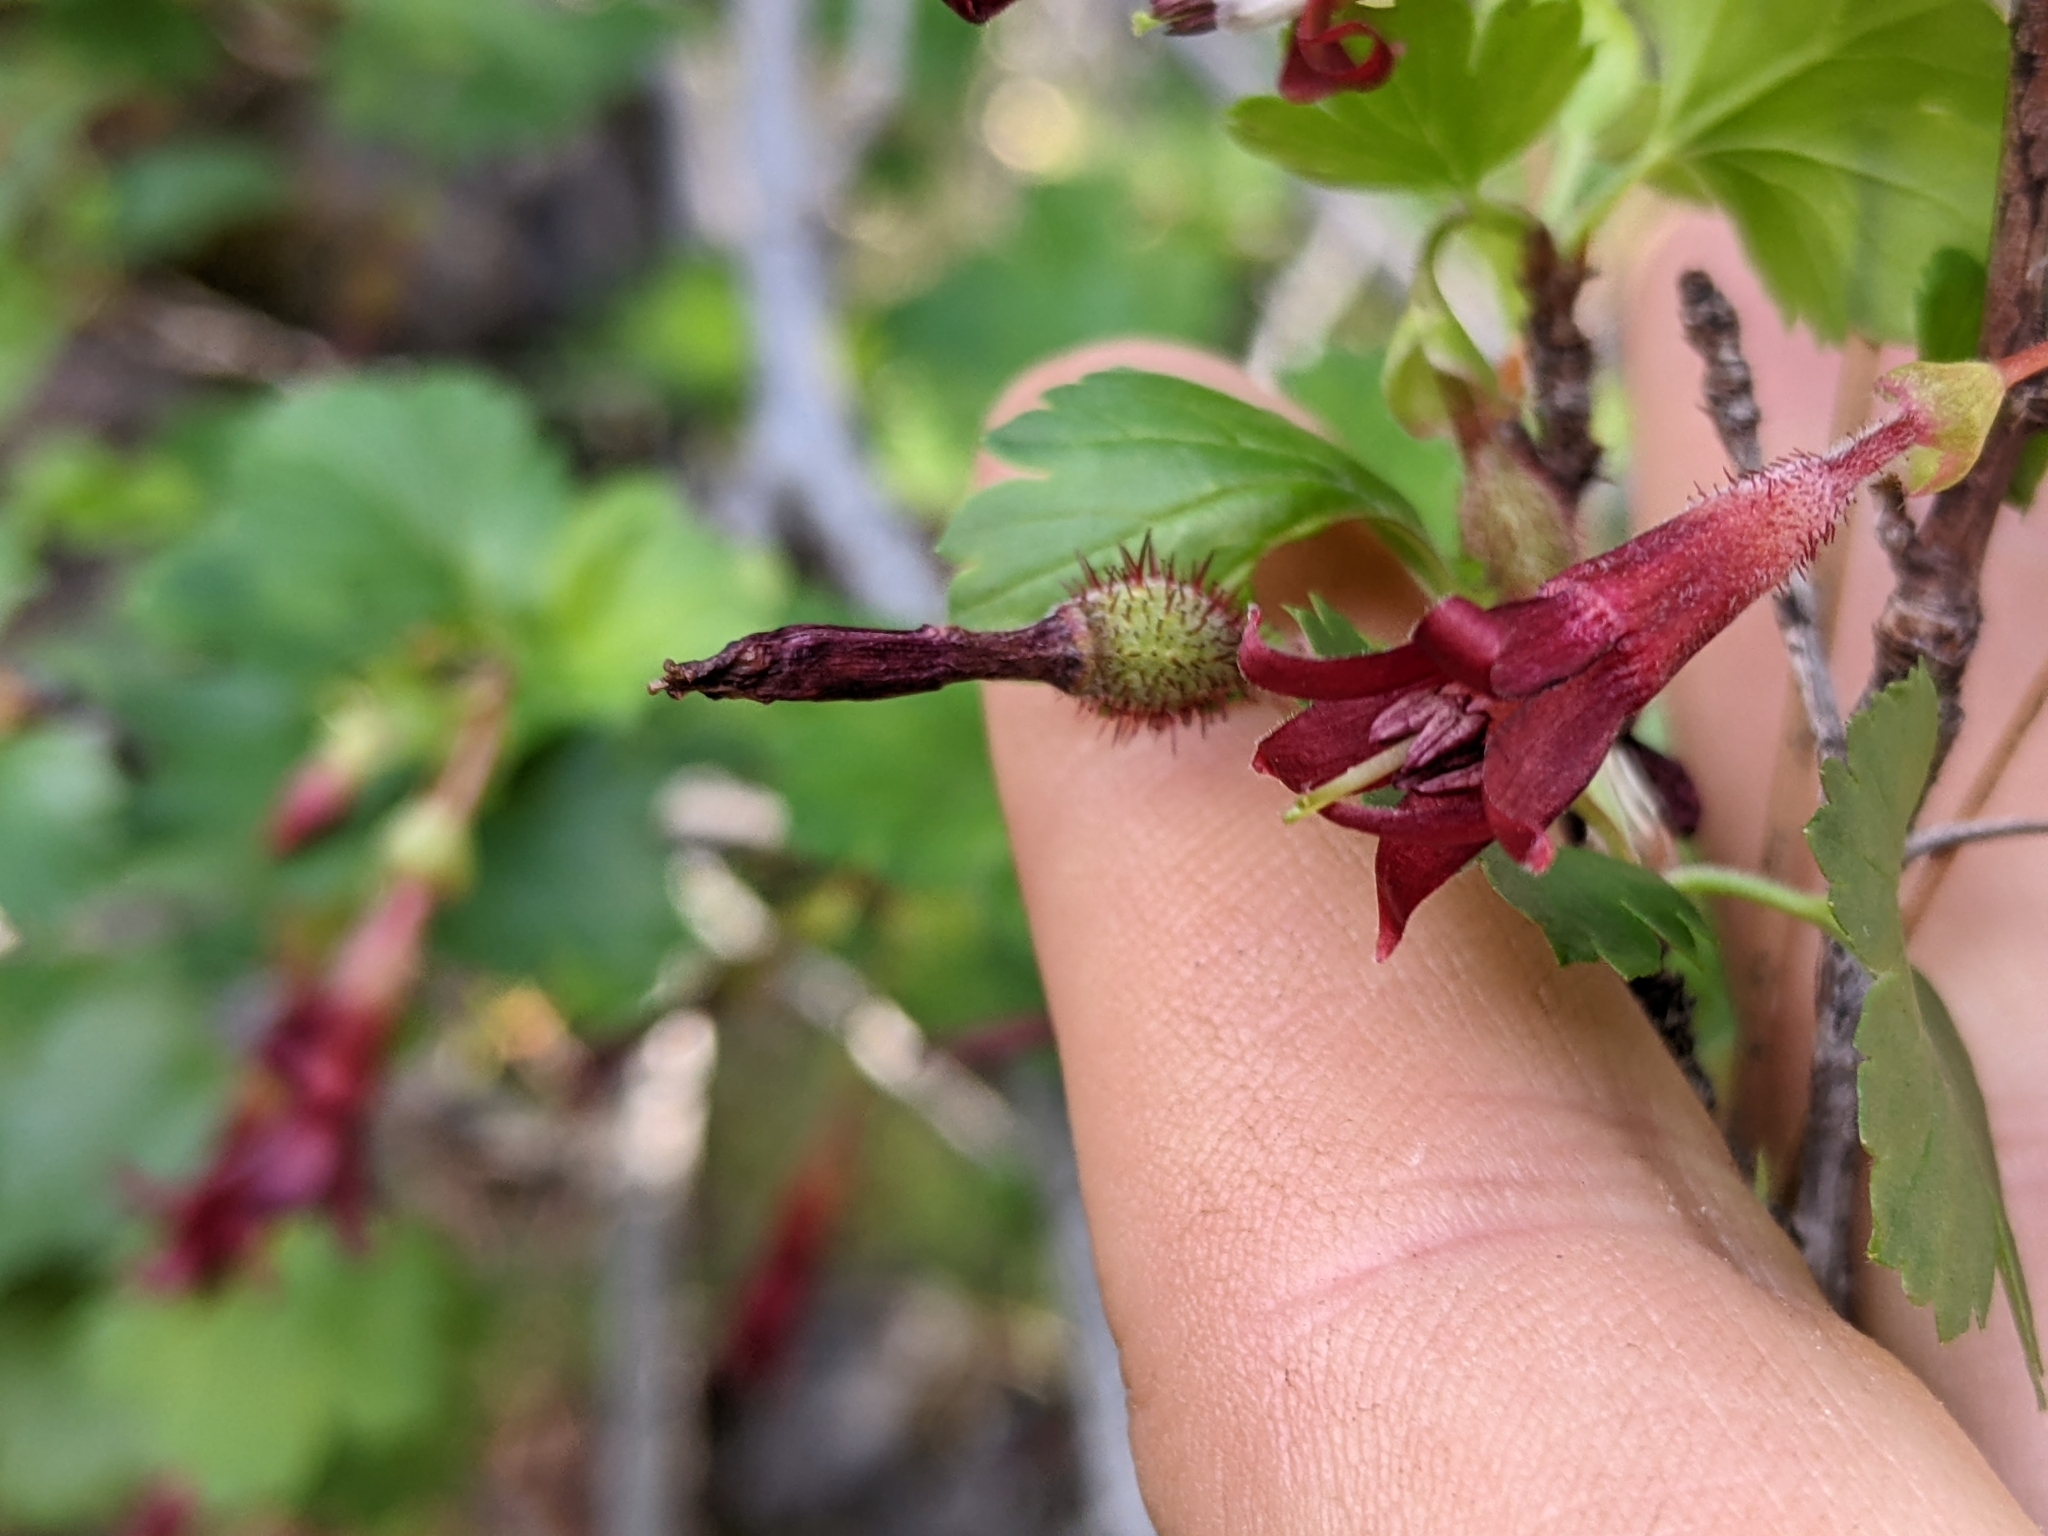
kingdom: Plantae
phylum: Tracheophyta
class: Magnoliopsida
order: Saxifragales
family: Grossulariaceae
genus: Ribes
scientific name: Ribes roezlii
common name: Sierra gooseberry
